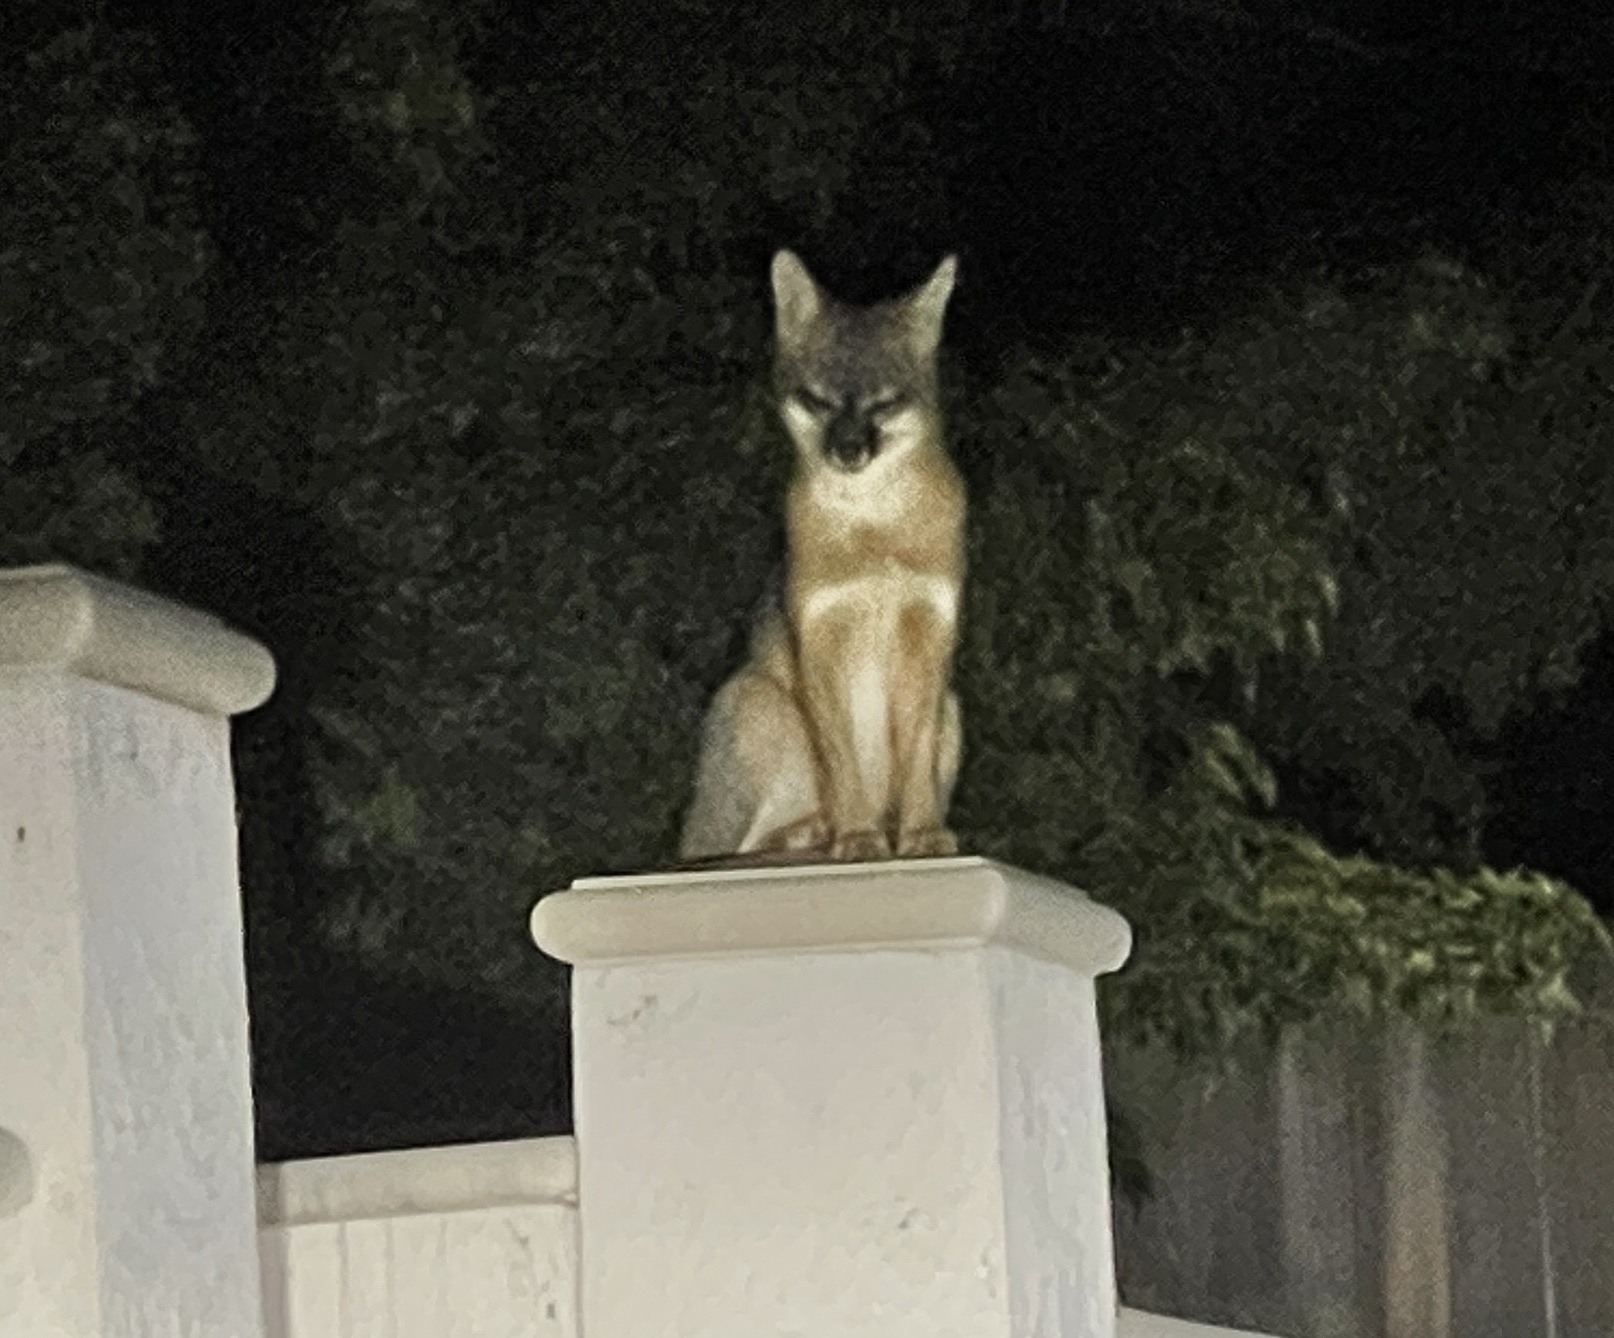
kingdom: Animalia
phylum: Chordata
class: Mammalia
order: Carnivora
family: Canidae
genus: Urocyon
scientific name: Urocyon cinereoargenteus
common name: Gray fox
